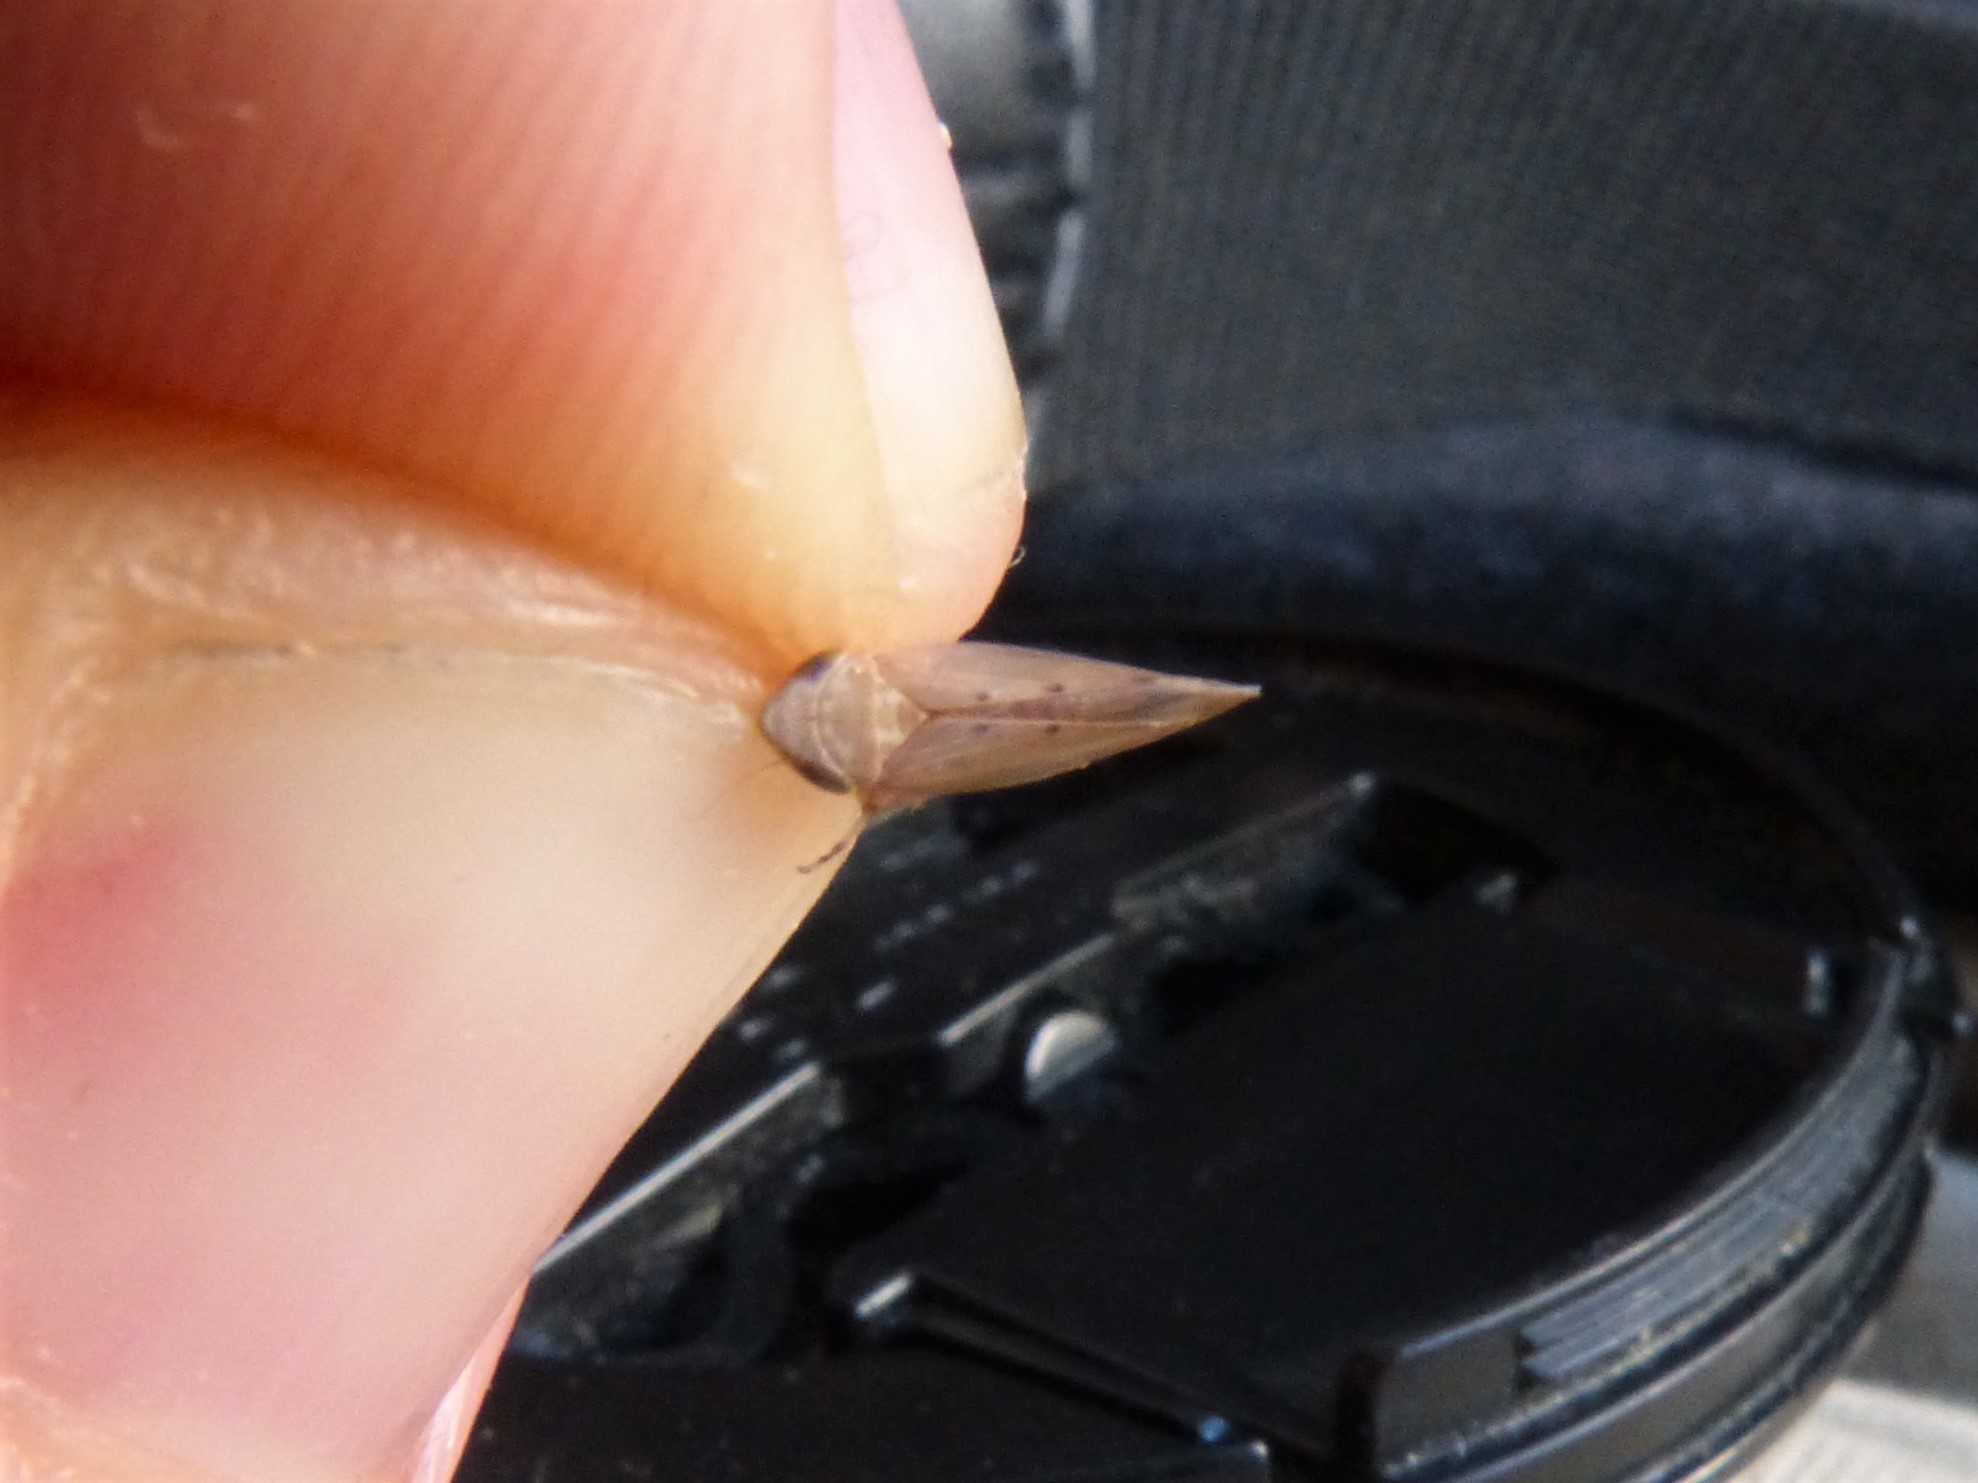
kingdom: Animalia
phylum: Arthropoda
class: Insecta
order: Hemiptera
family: Cicadellidae
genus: Synophropsis
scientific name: Synophropsis lauri
